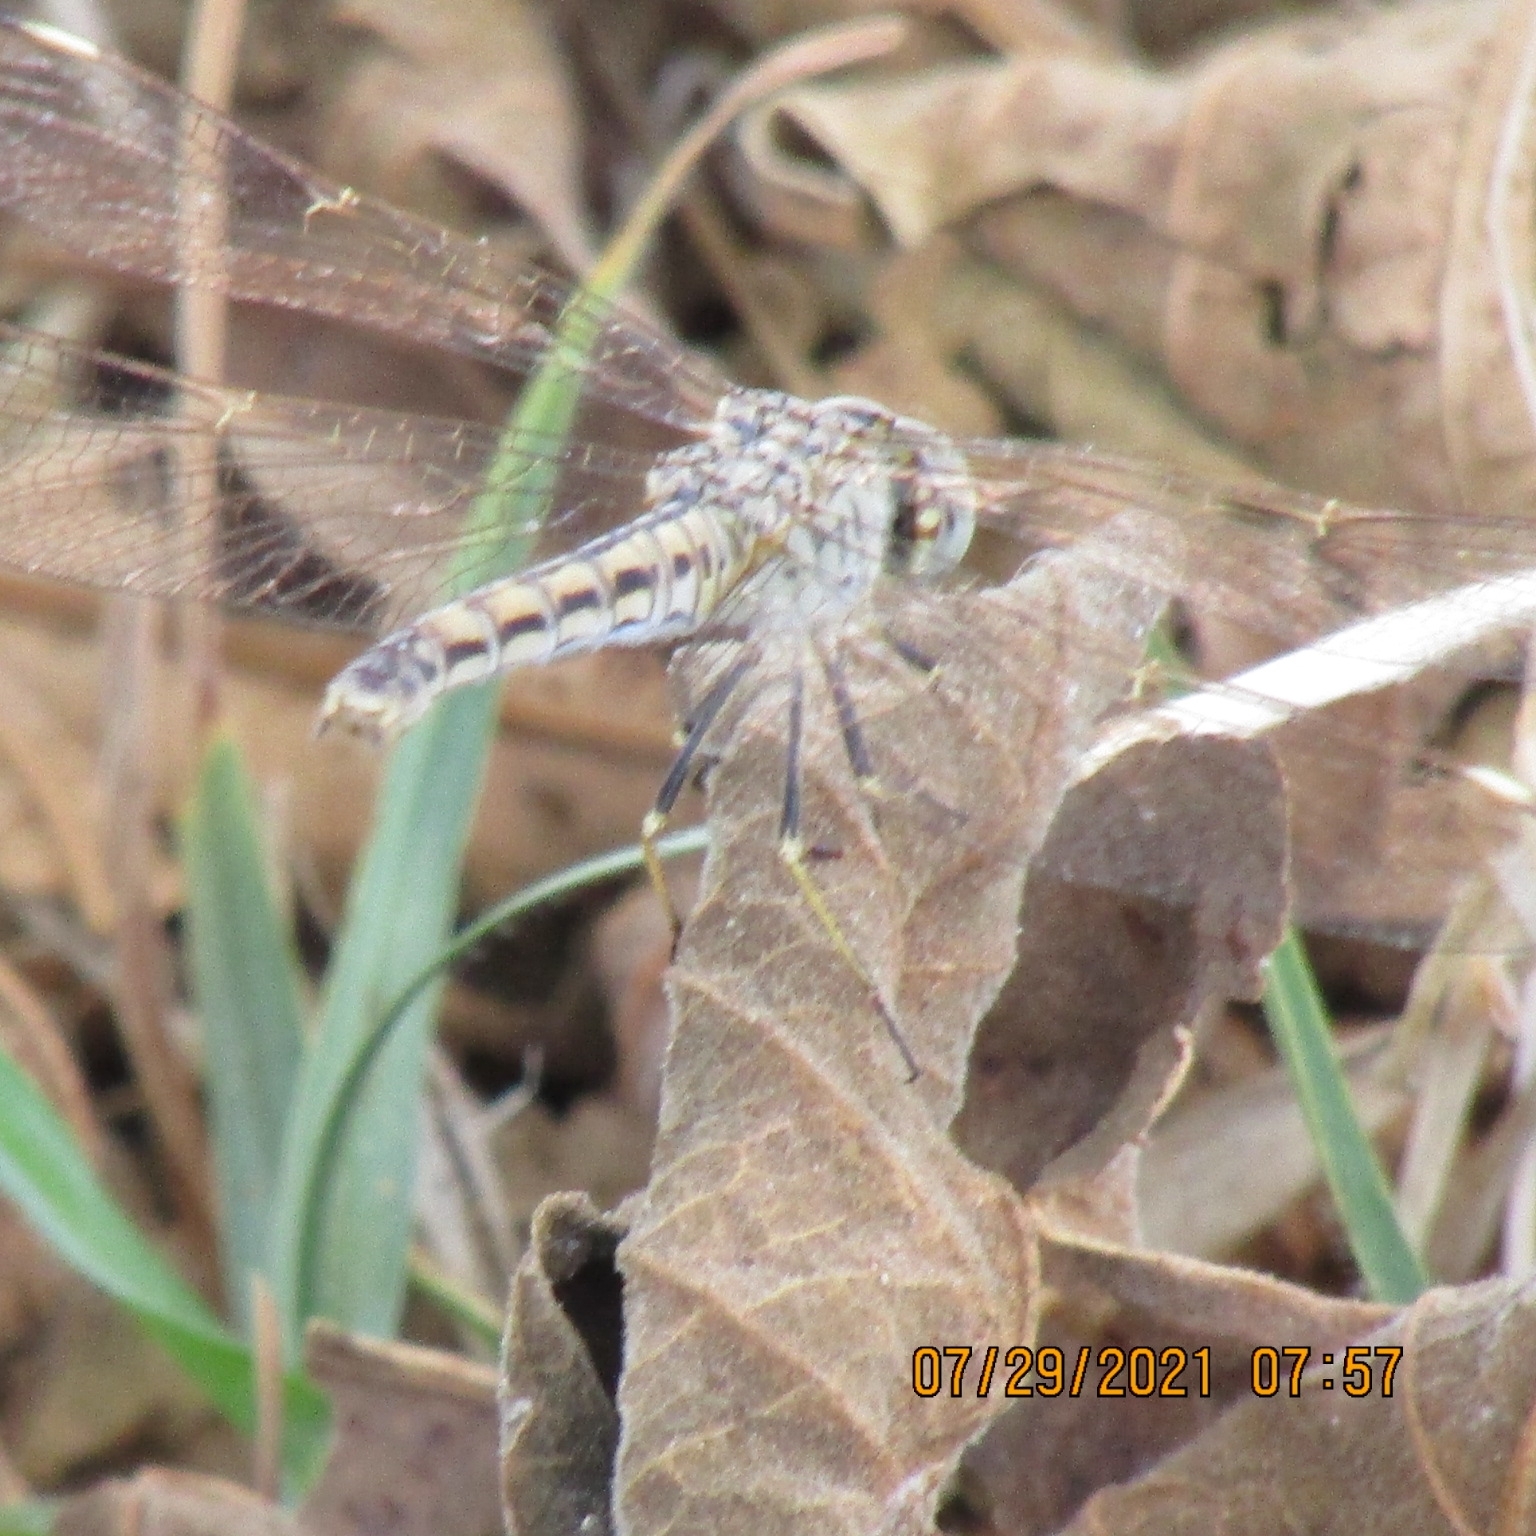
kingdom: Animalia
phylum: Arthropoda
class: Insecta
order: Odonata
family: Libellulidae
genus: Brachythemis
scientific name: Brachythemis impartita
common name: Banded groundling
